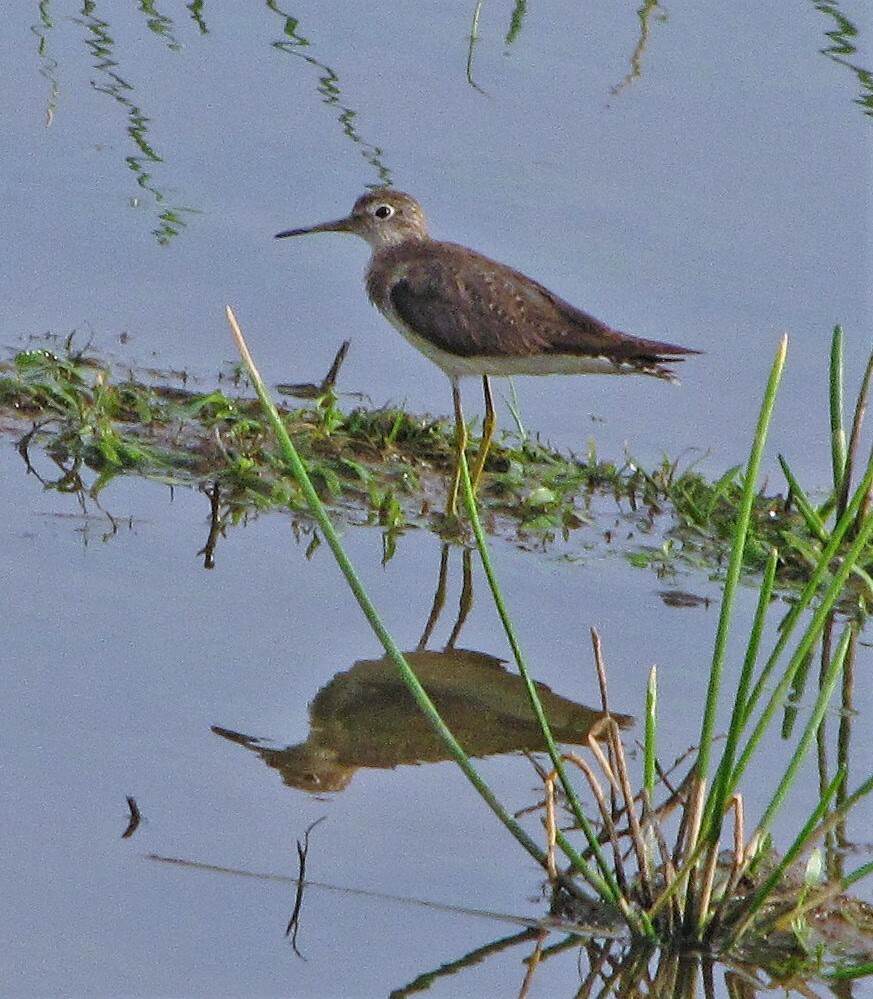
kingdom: Animalia
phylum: Chordata
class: Aves
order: Charadriiformes
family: Scolopacidae
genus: Tringa
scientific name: Tringa solitaria
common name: Solitary sandpiper
